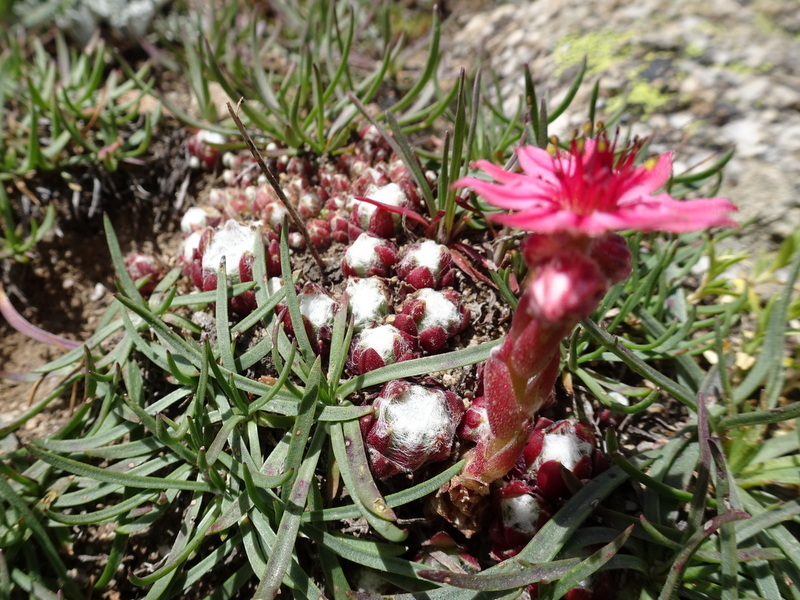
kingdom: Plantae
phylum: Tracheophyta
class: Magnoliopsida
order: Saxifragales
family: Crassulaceae
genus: Sempervivum
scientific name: Sempervivum arachnoideum
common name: Cobweb house-leek
